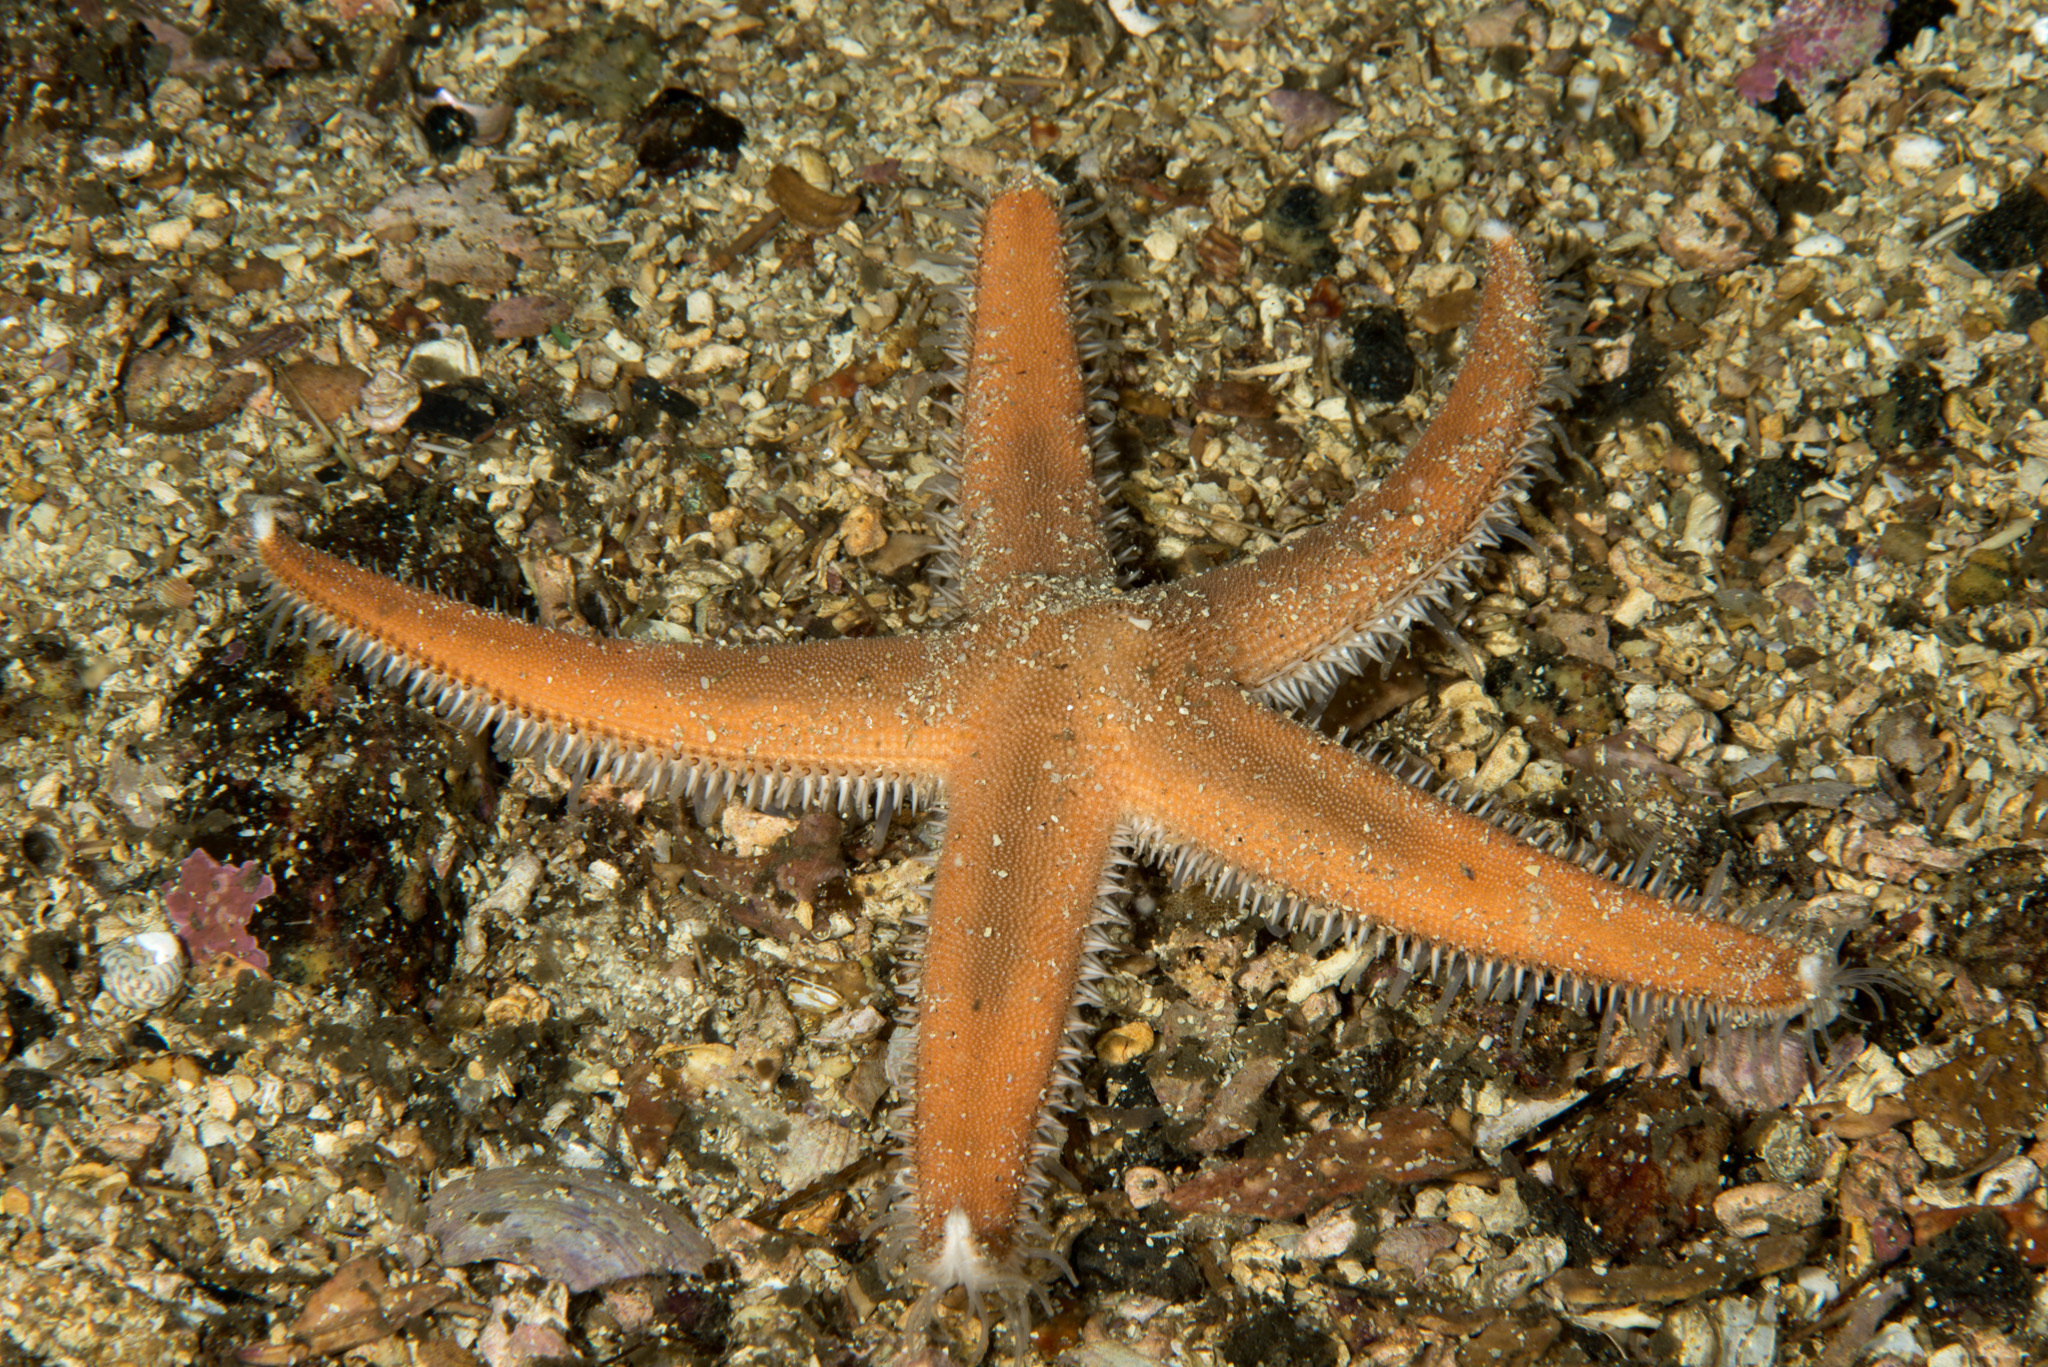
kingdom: Animalia
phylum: Echinodermata
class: Asteroidea
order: Paxillosida
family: Luidiidae
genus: Luidia
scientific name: Luidia sarsii
